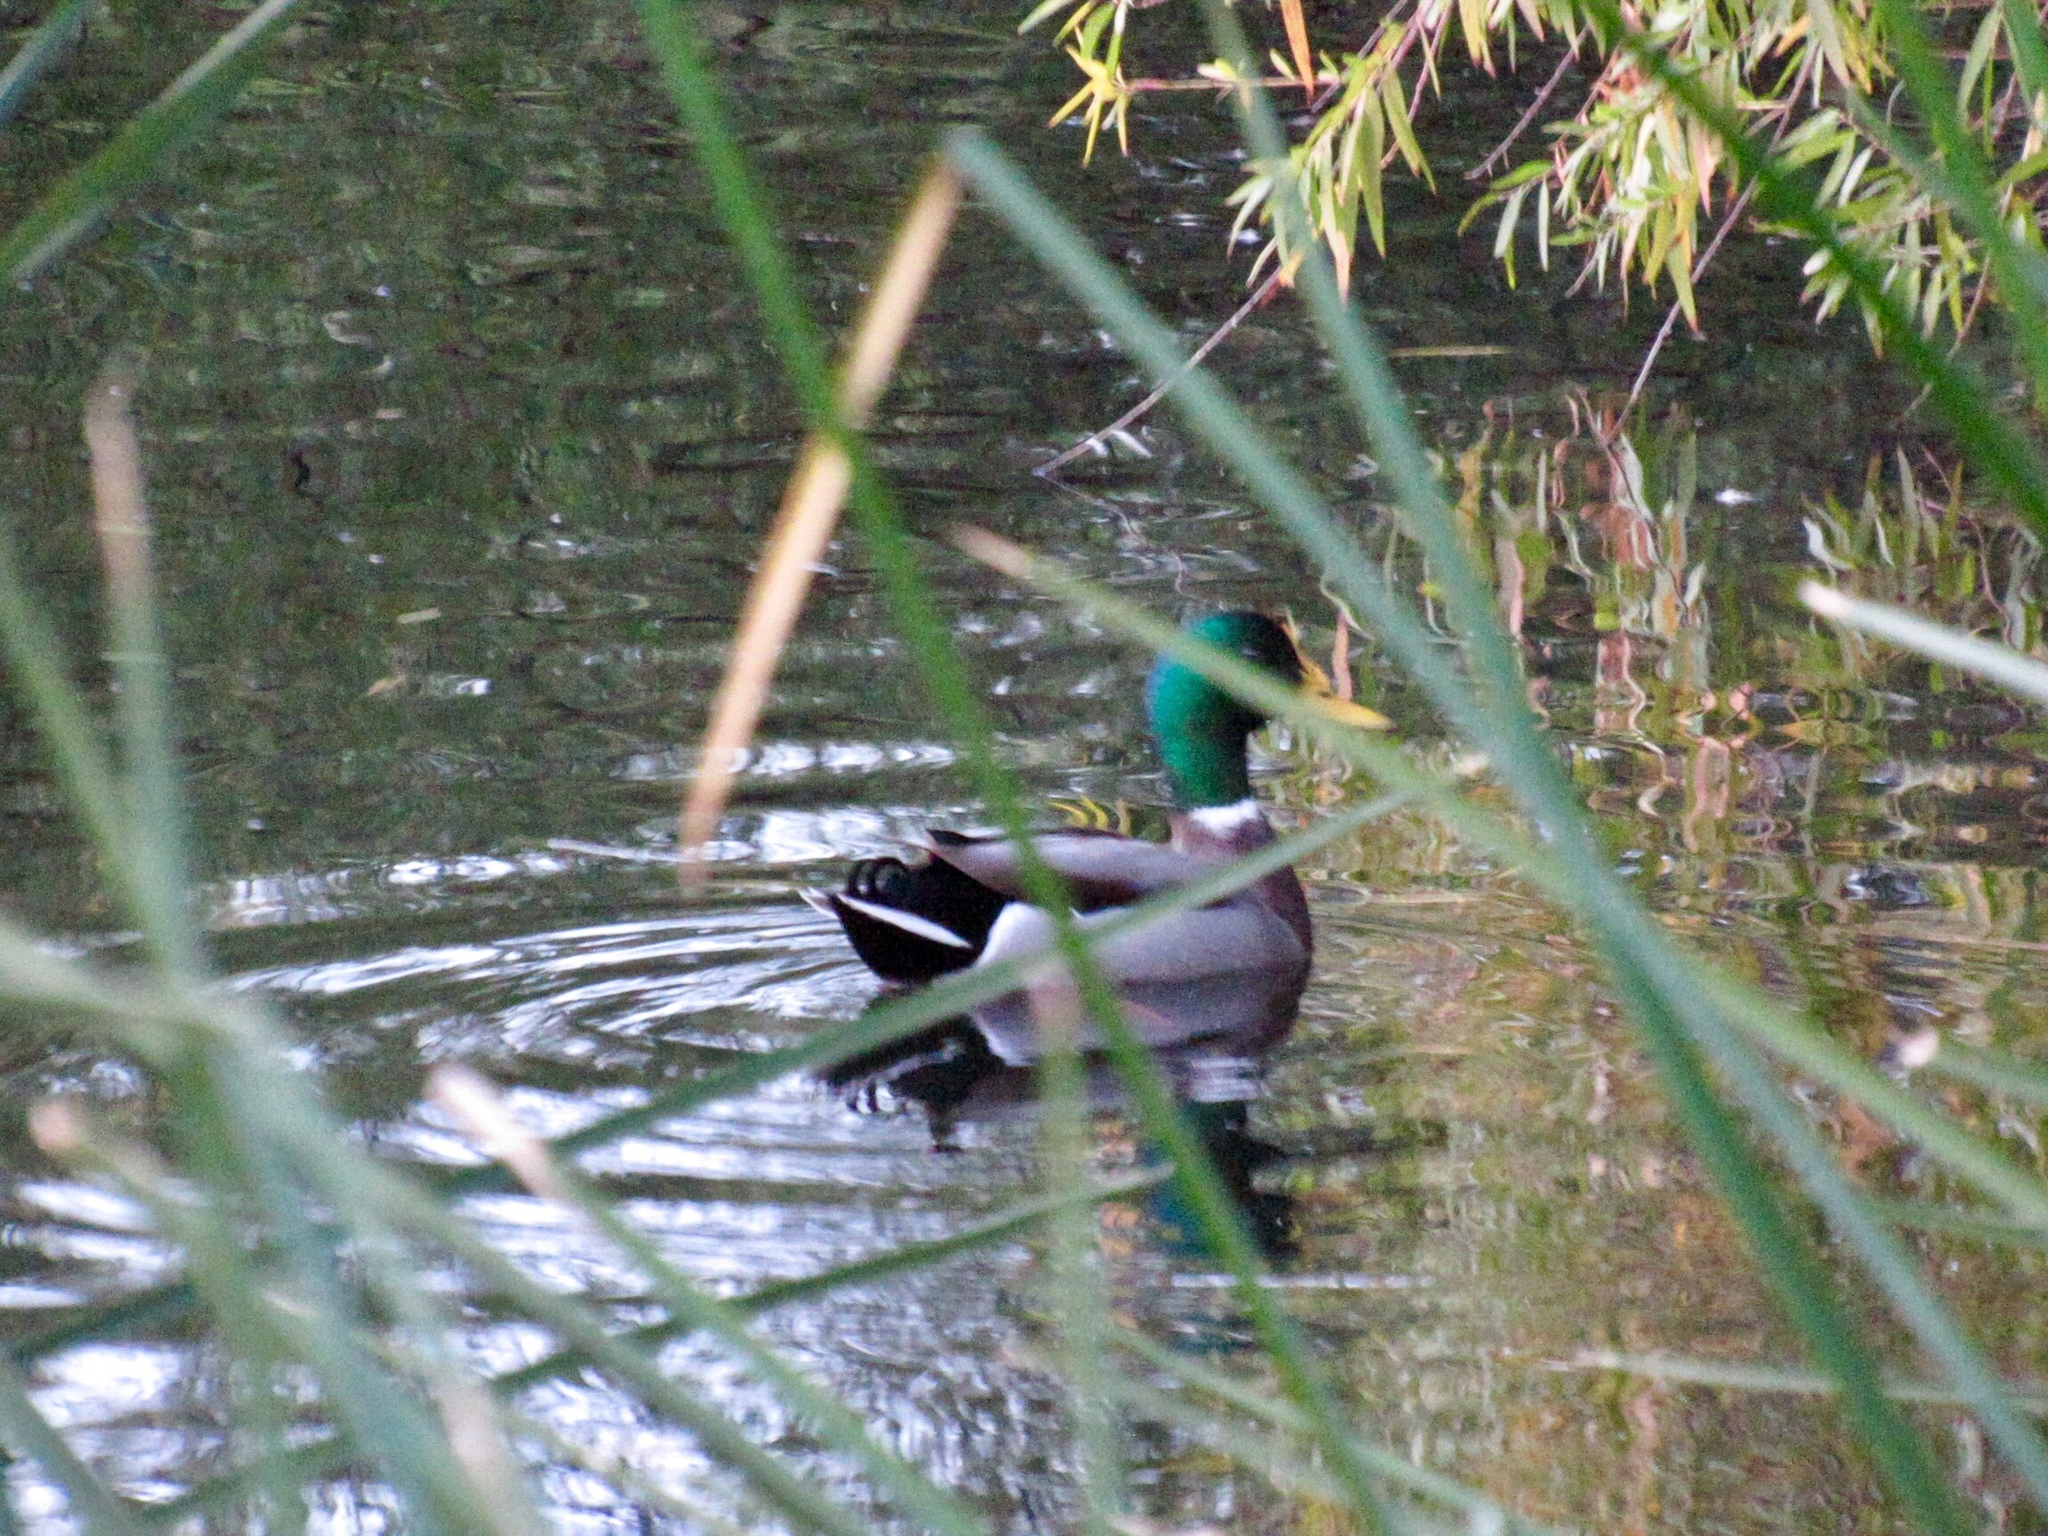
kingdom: Animalia
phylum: Chordata
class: Aves
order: Anseriformes
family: Anatidae
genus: Anas
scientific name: Anas platyrhynchos
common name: Mallard
